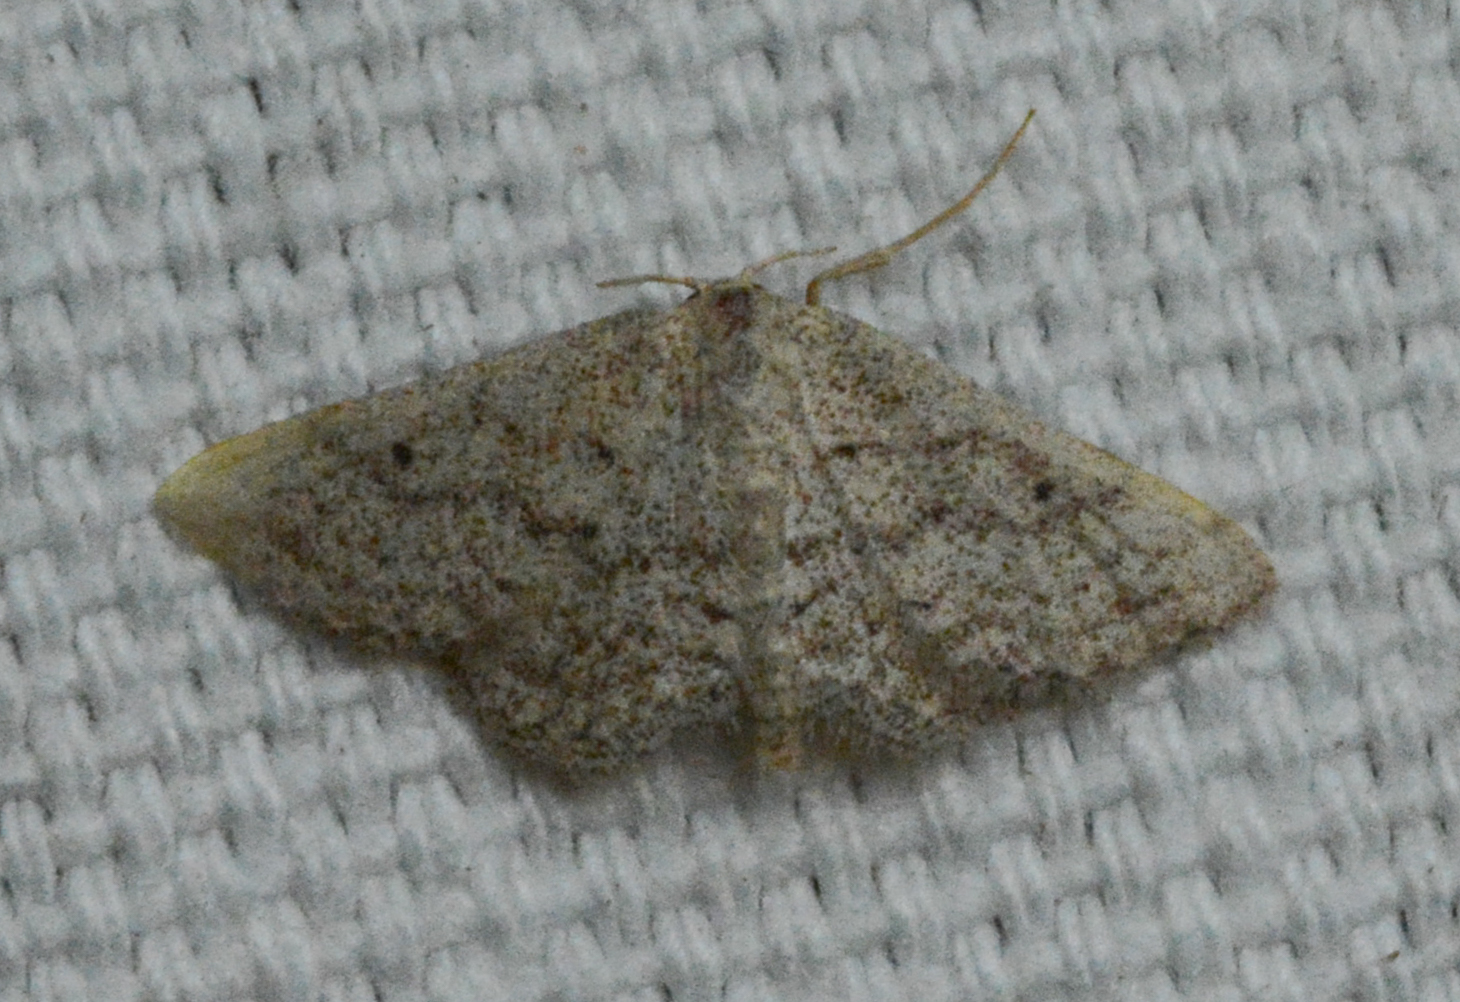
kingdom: Animalia
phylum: Arthropoda
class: Insecta
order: Lepidoptera
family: Geometridae
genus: Lobocleta
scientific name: Lobocleta ossularia
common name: Drab brown wave
